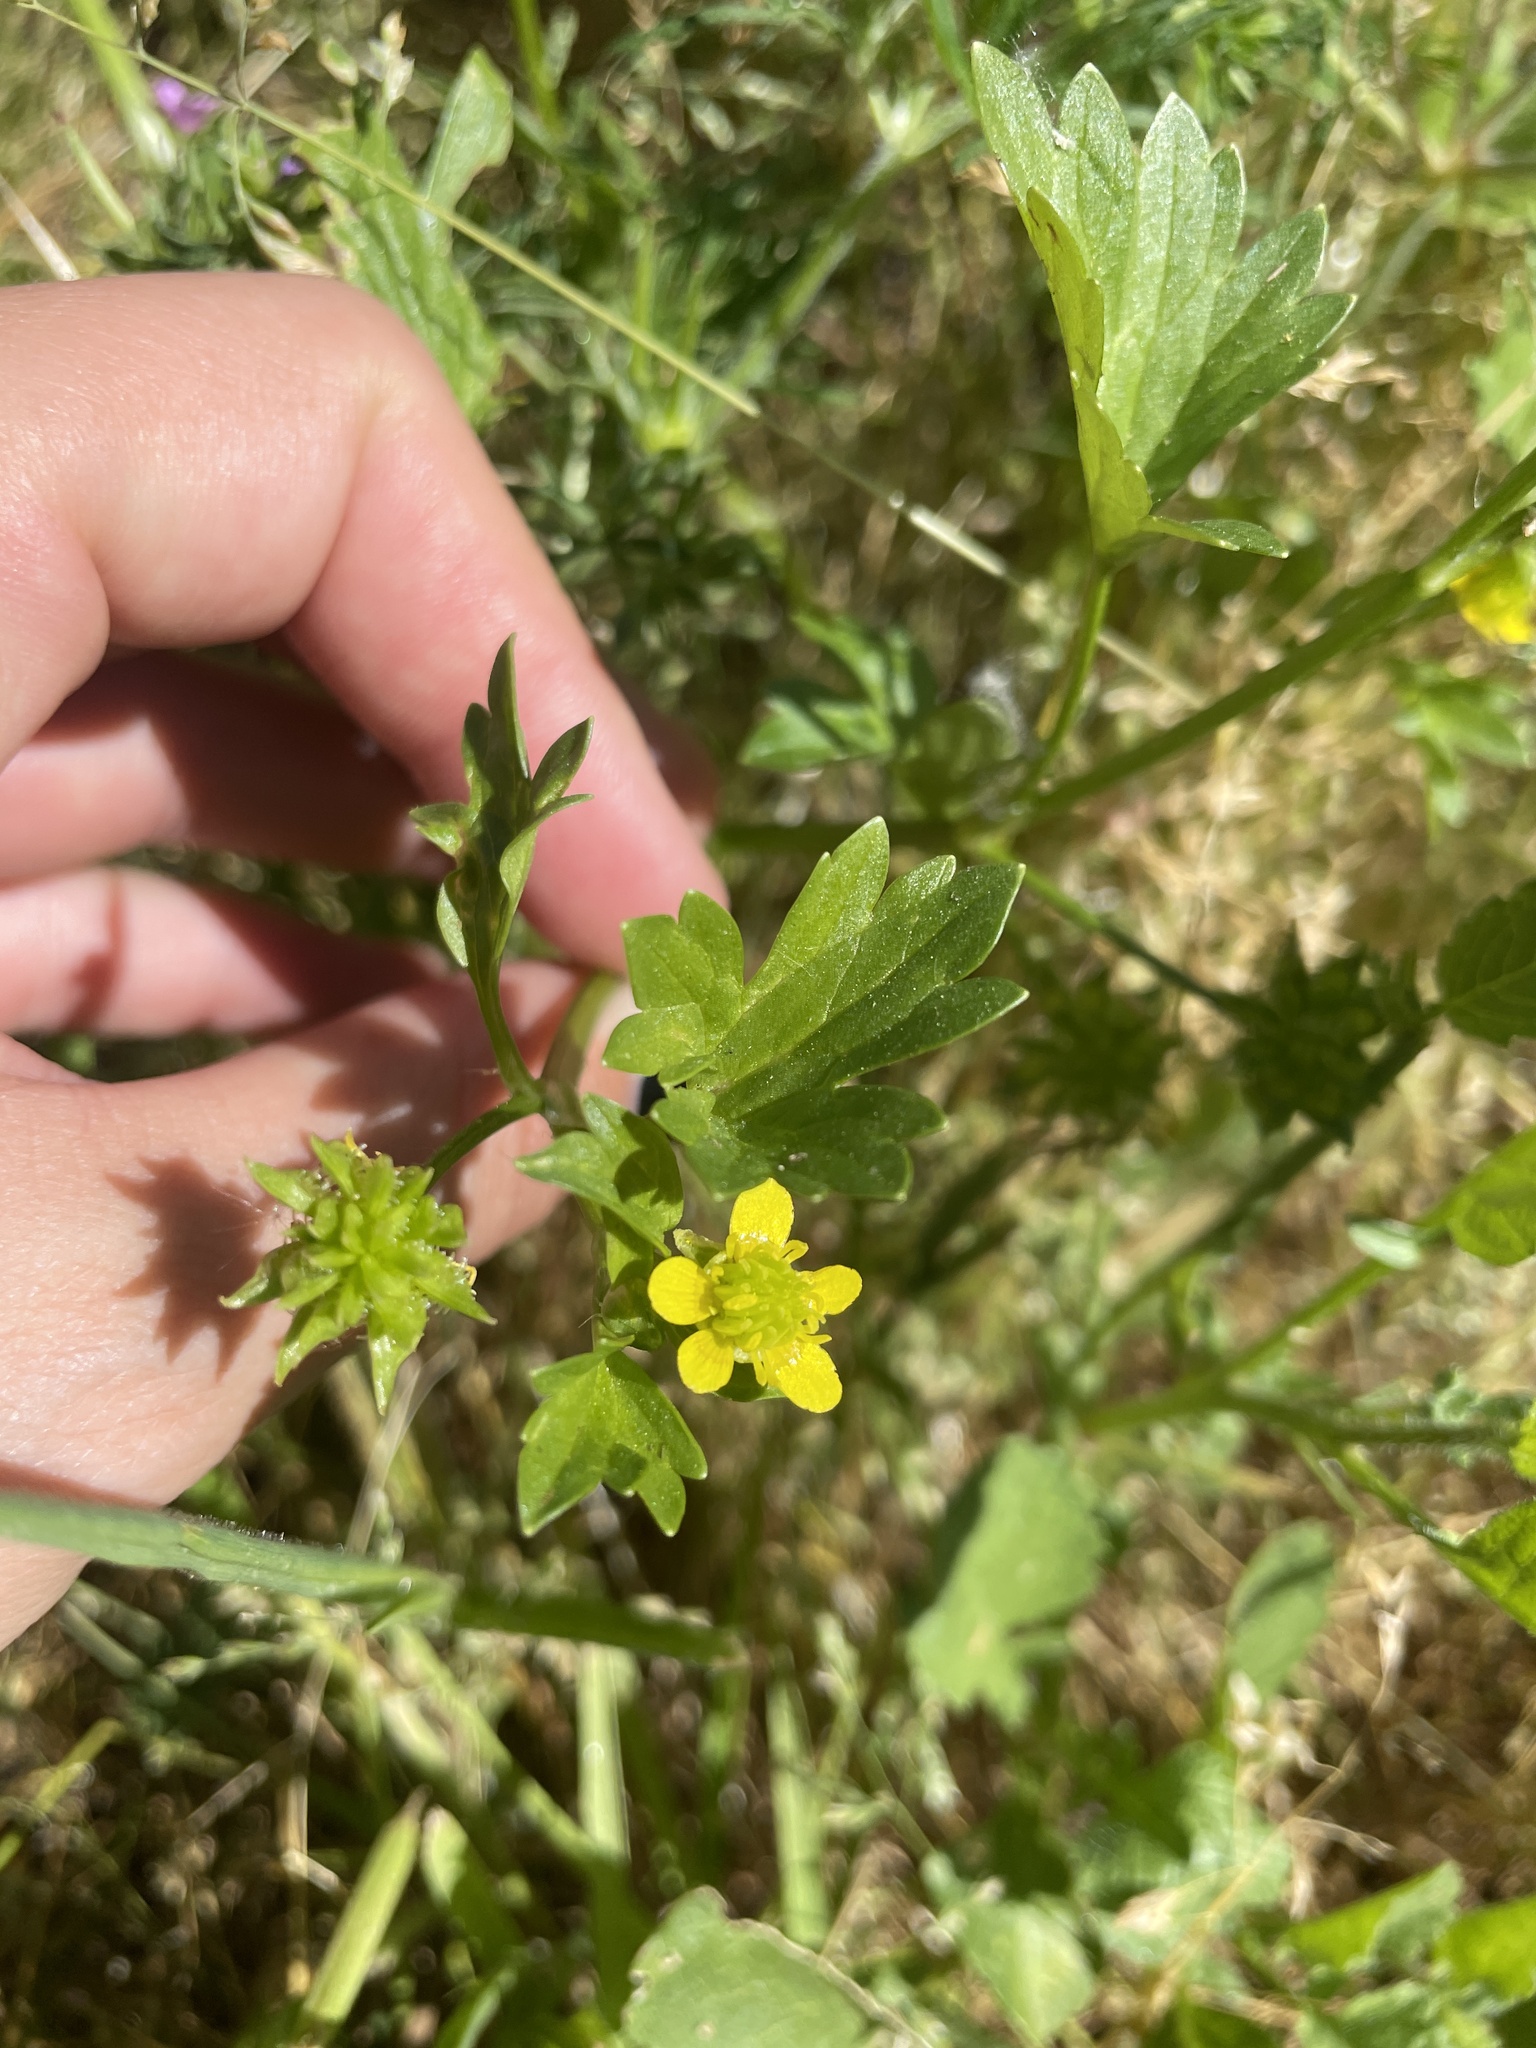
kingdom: Plantae
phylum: Tracheophyta
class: Magnoliopsida
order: Ranunculales
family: Ranunculaceae
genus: Ranunculus
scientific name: Ranunculus muricatus
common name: Rough-fruited buttercup
